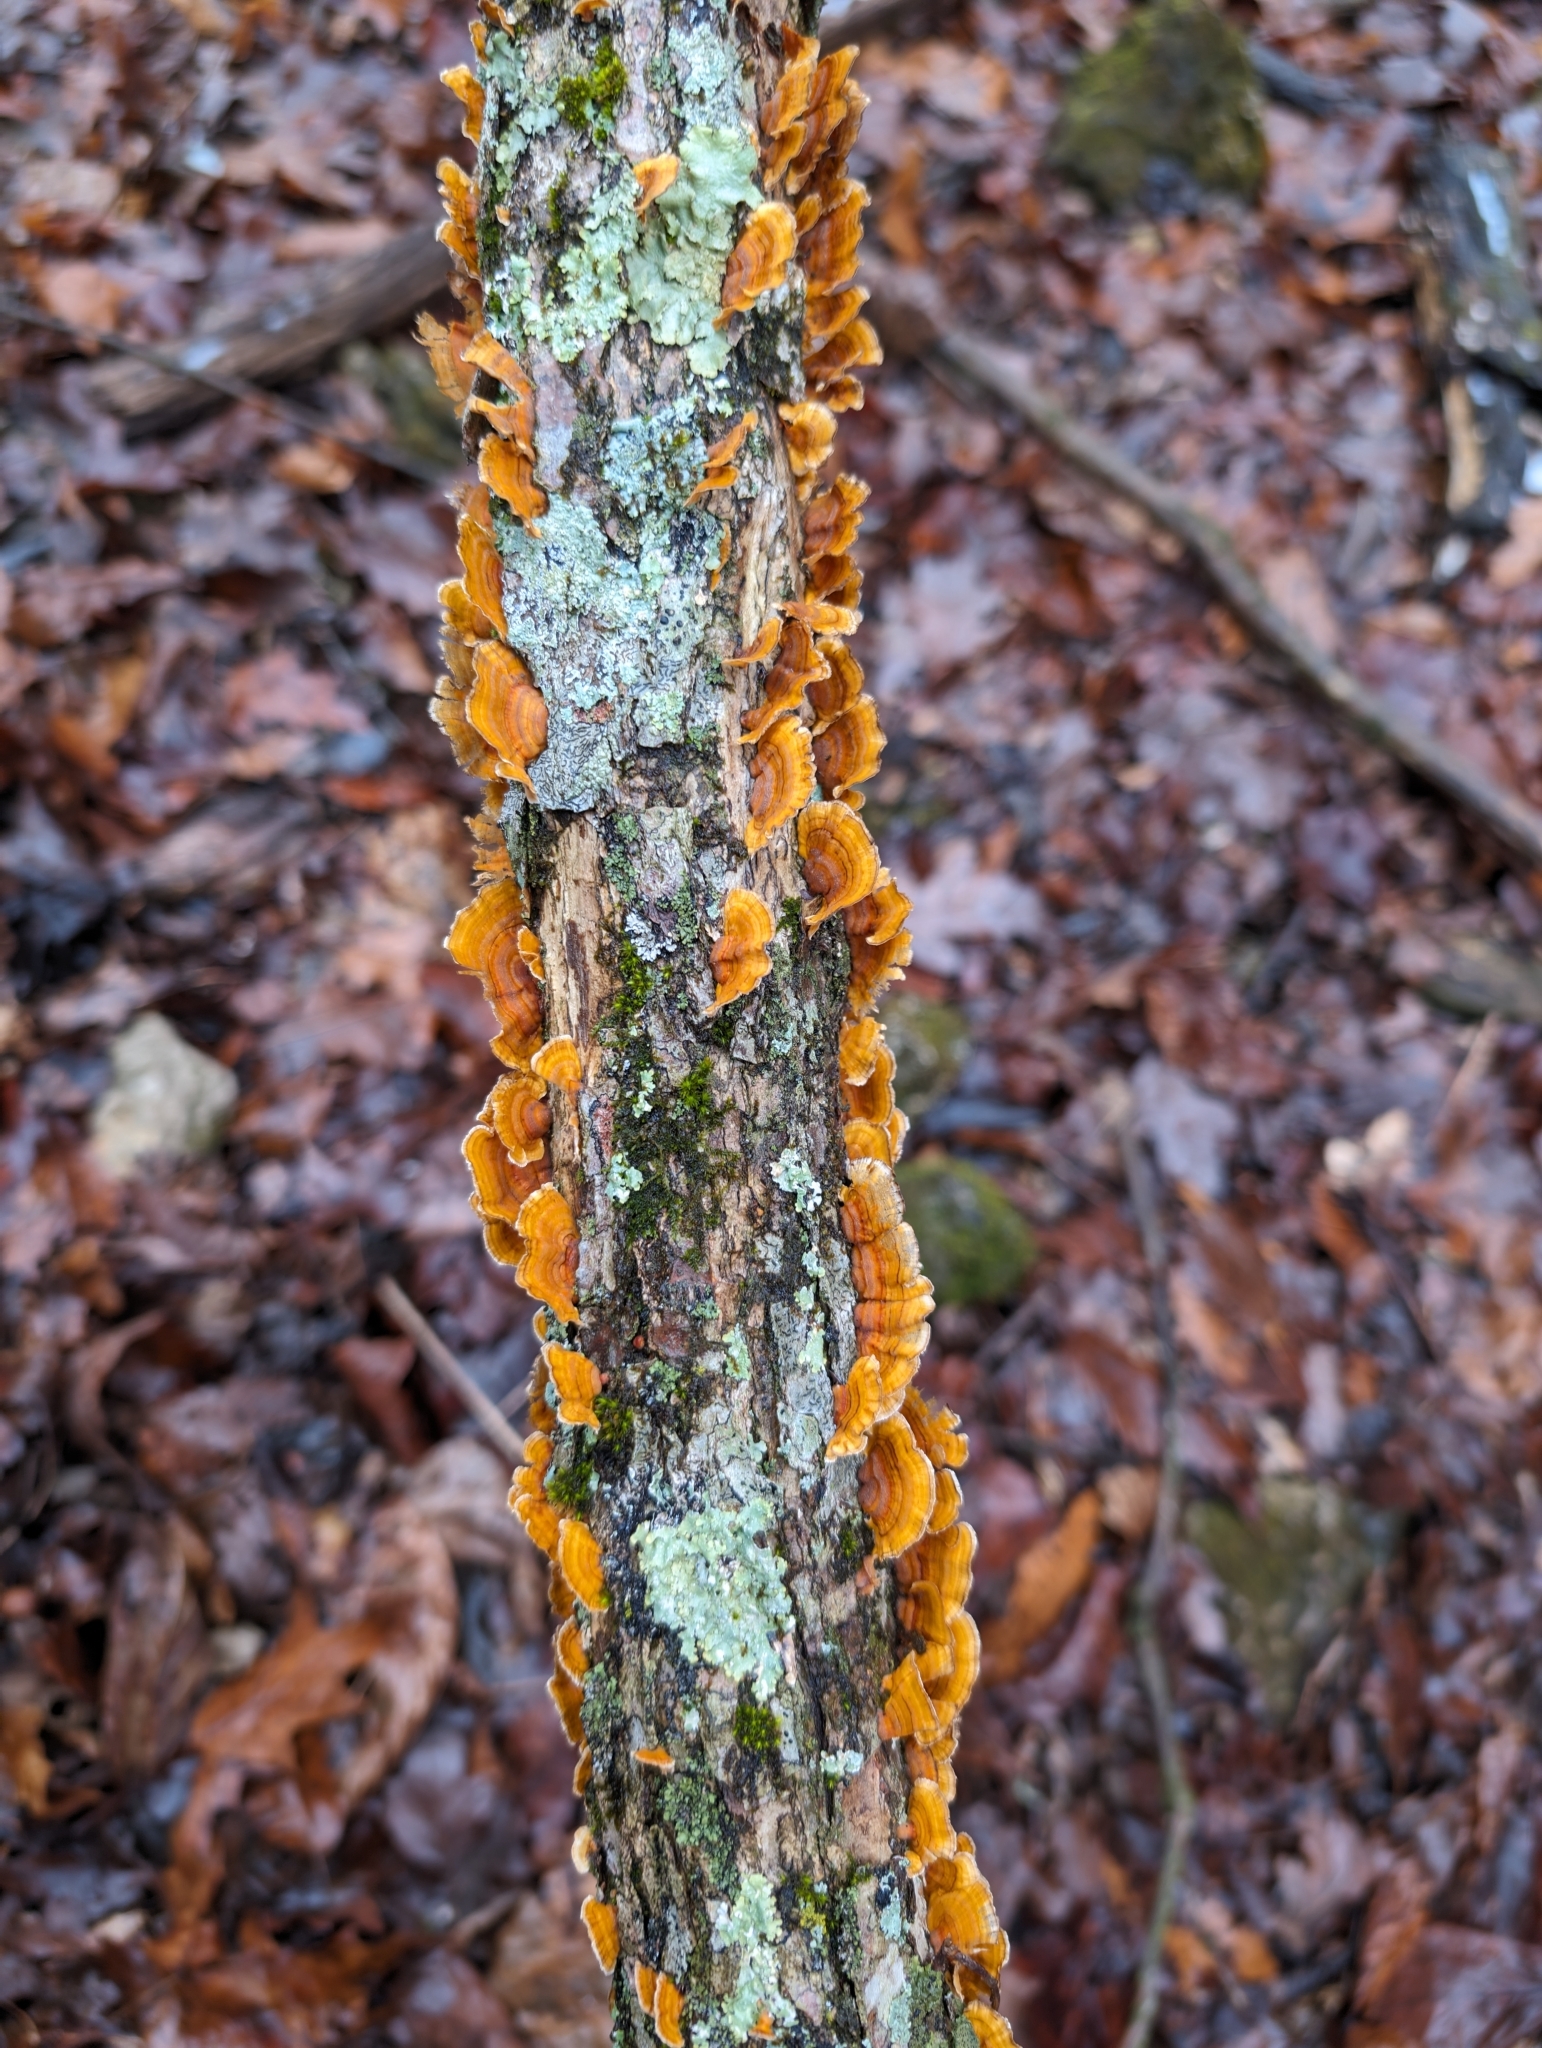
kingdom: Fungi
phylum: Basidiomycota
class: Agaricomycetes
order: Russulales
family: Stereaceae
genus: Stereum
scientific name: Stereum complicatum
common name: Crowded parchment
